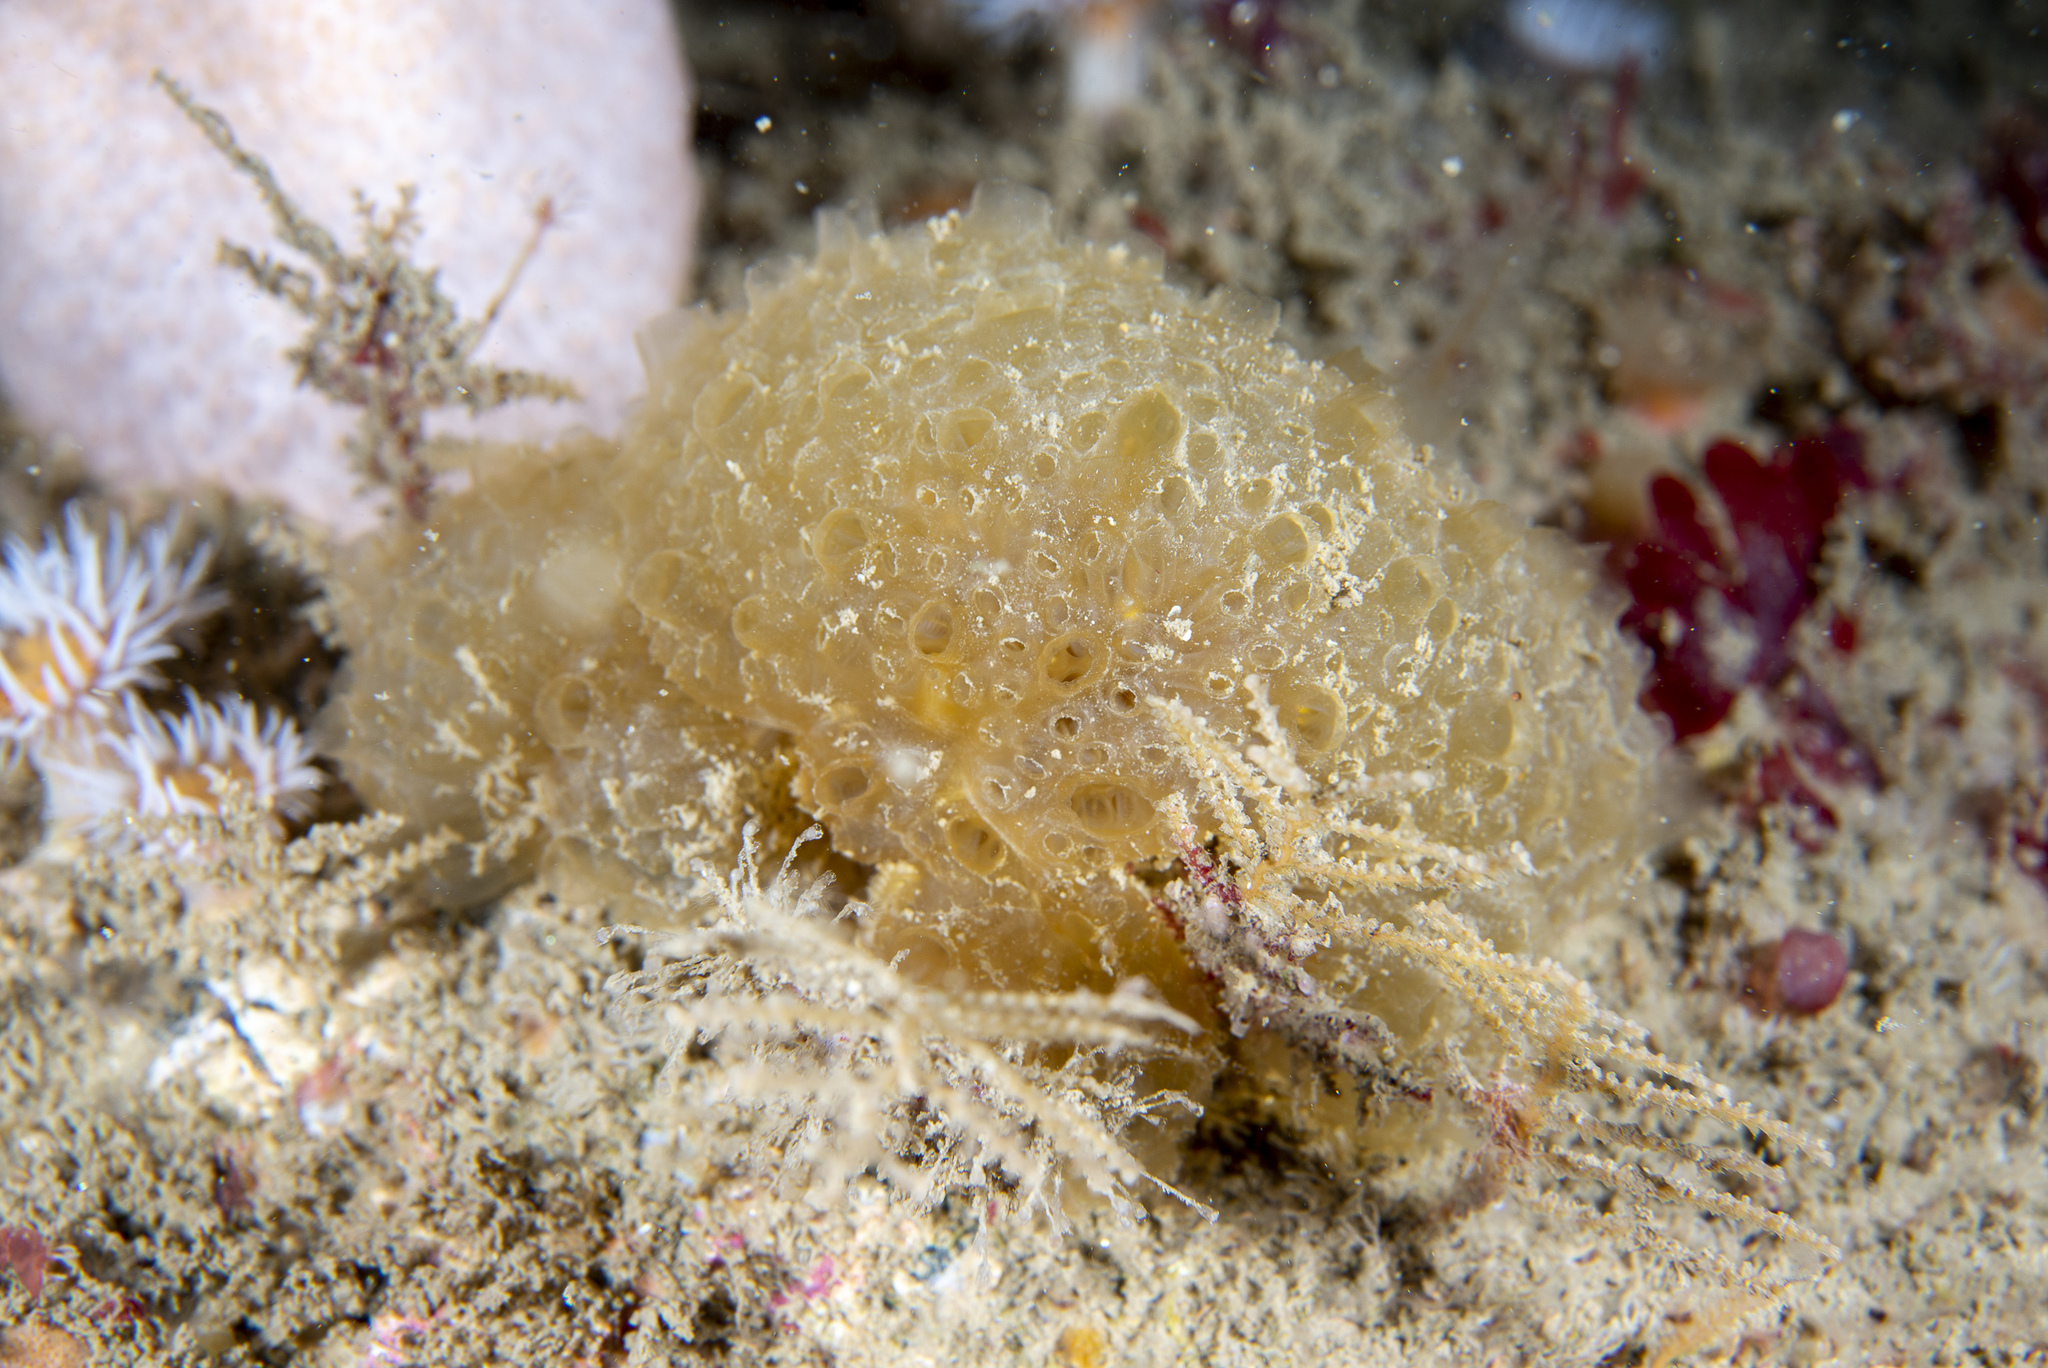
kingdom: Animalia
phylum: Chordata
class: Ascidiacea
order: Aplousobranchia
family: Polyclinidae
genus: Polyclinum
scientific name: Polyclinum aurantium
